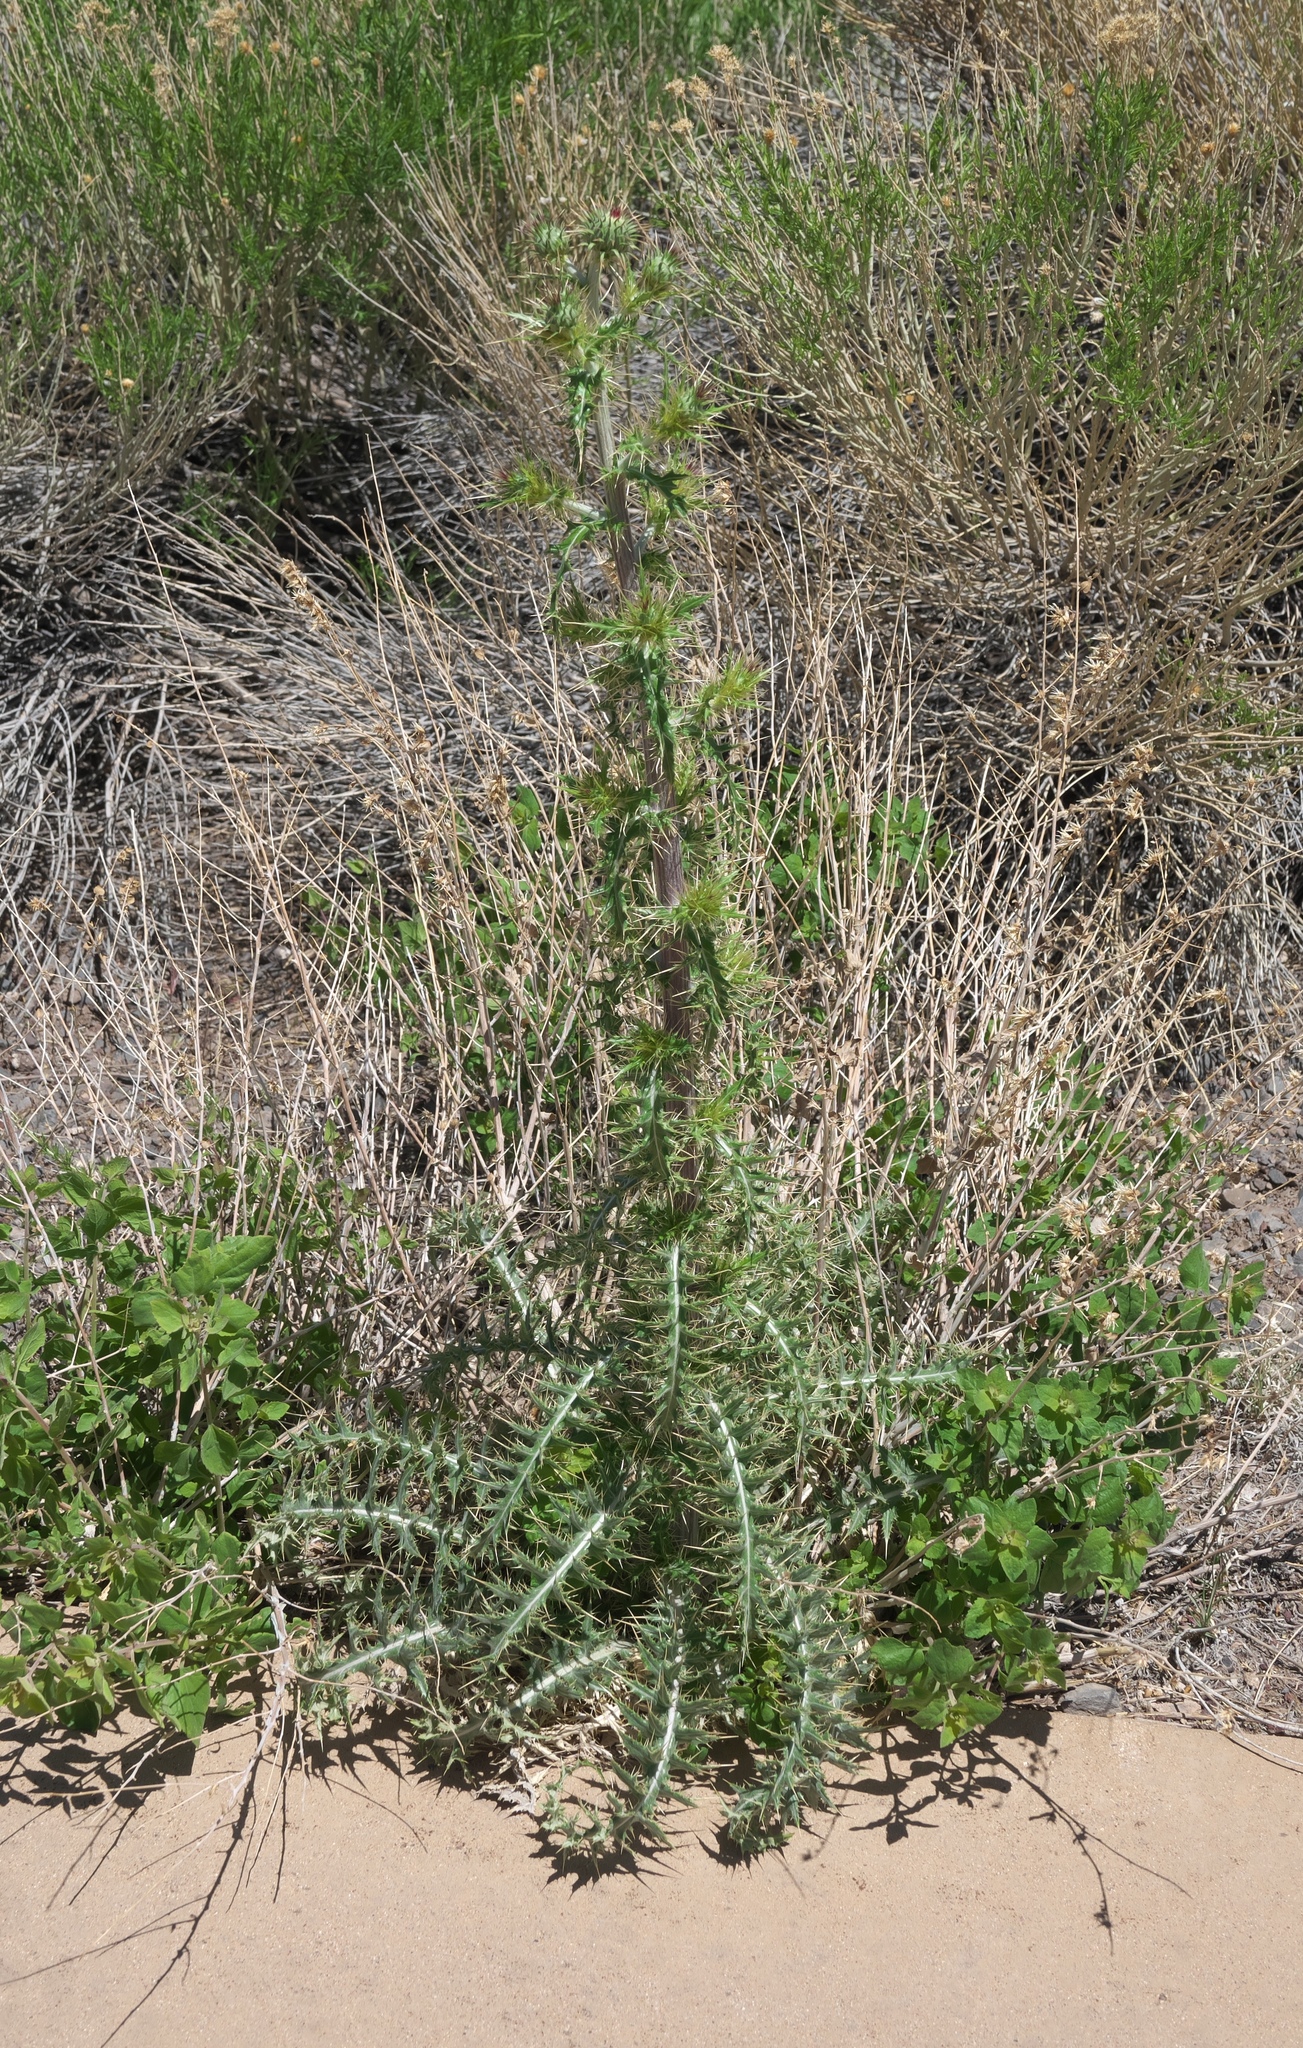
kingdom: Plantae
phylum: Tracheophyta
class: Magnoliopsida
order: Asterales
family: Asteraceae
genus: Cirsium
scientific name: Cirsium arizonicum
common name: Arizona thistle
